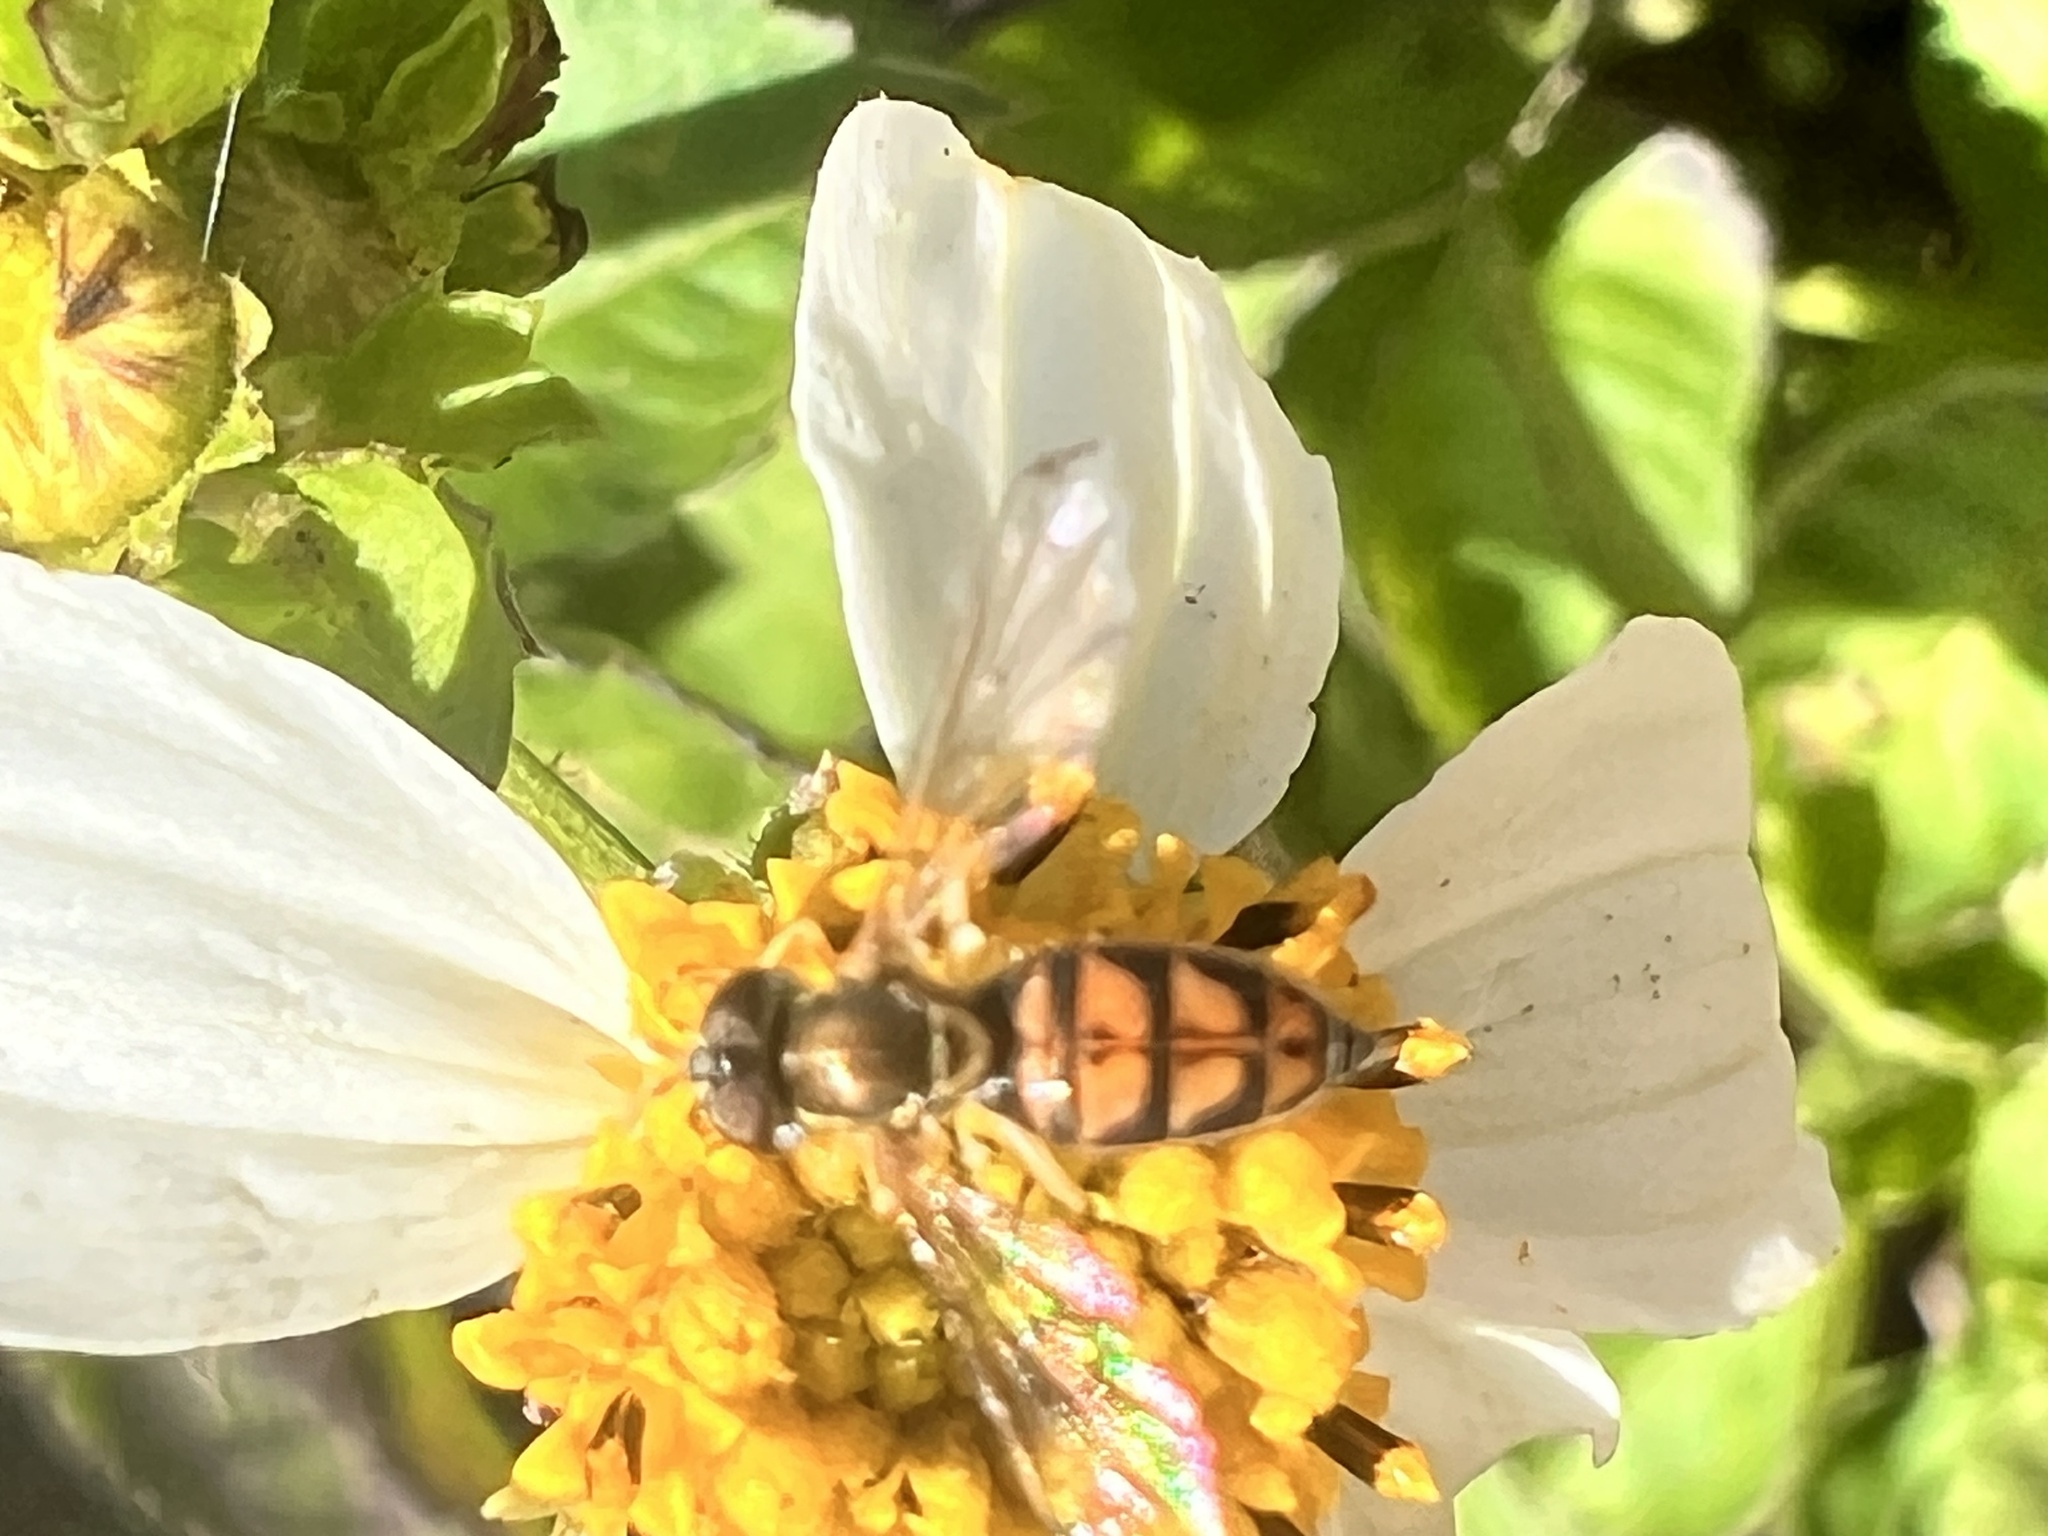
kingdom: Animalia
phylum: Arthropoda
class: Insecta
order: Diptera
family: Syrphidae
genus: Toxomerus
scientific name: Toxomerus marginatus
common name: Syrphid fly
